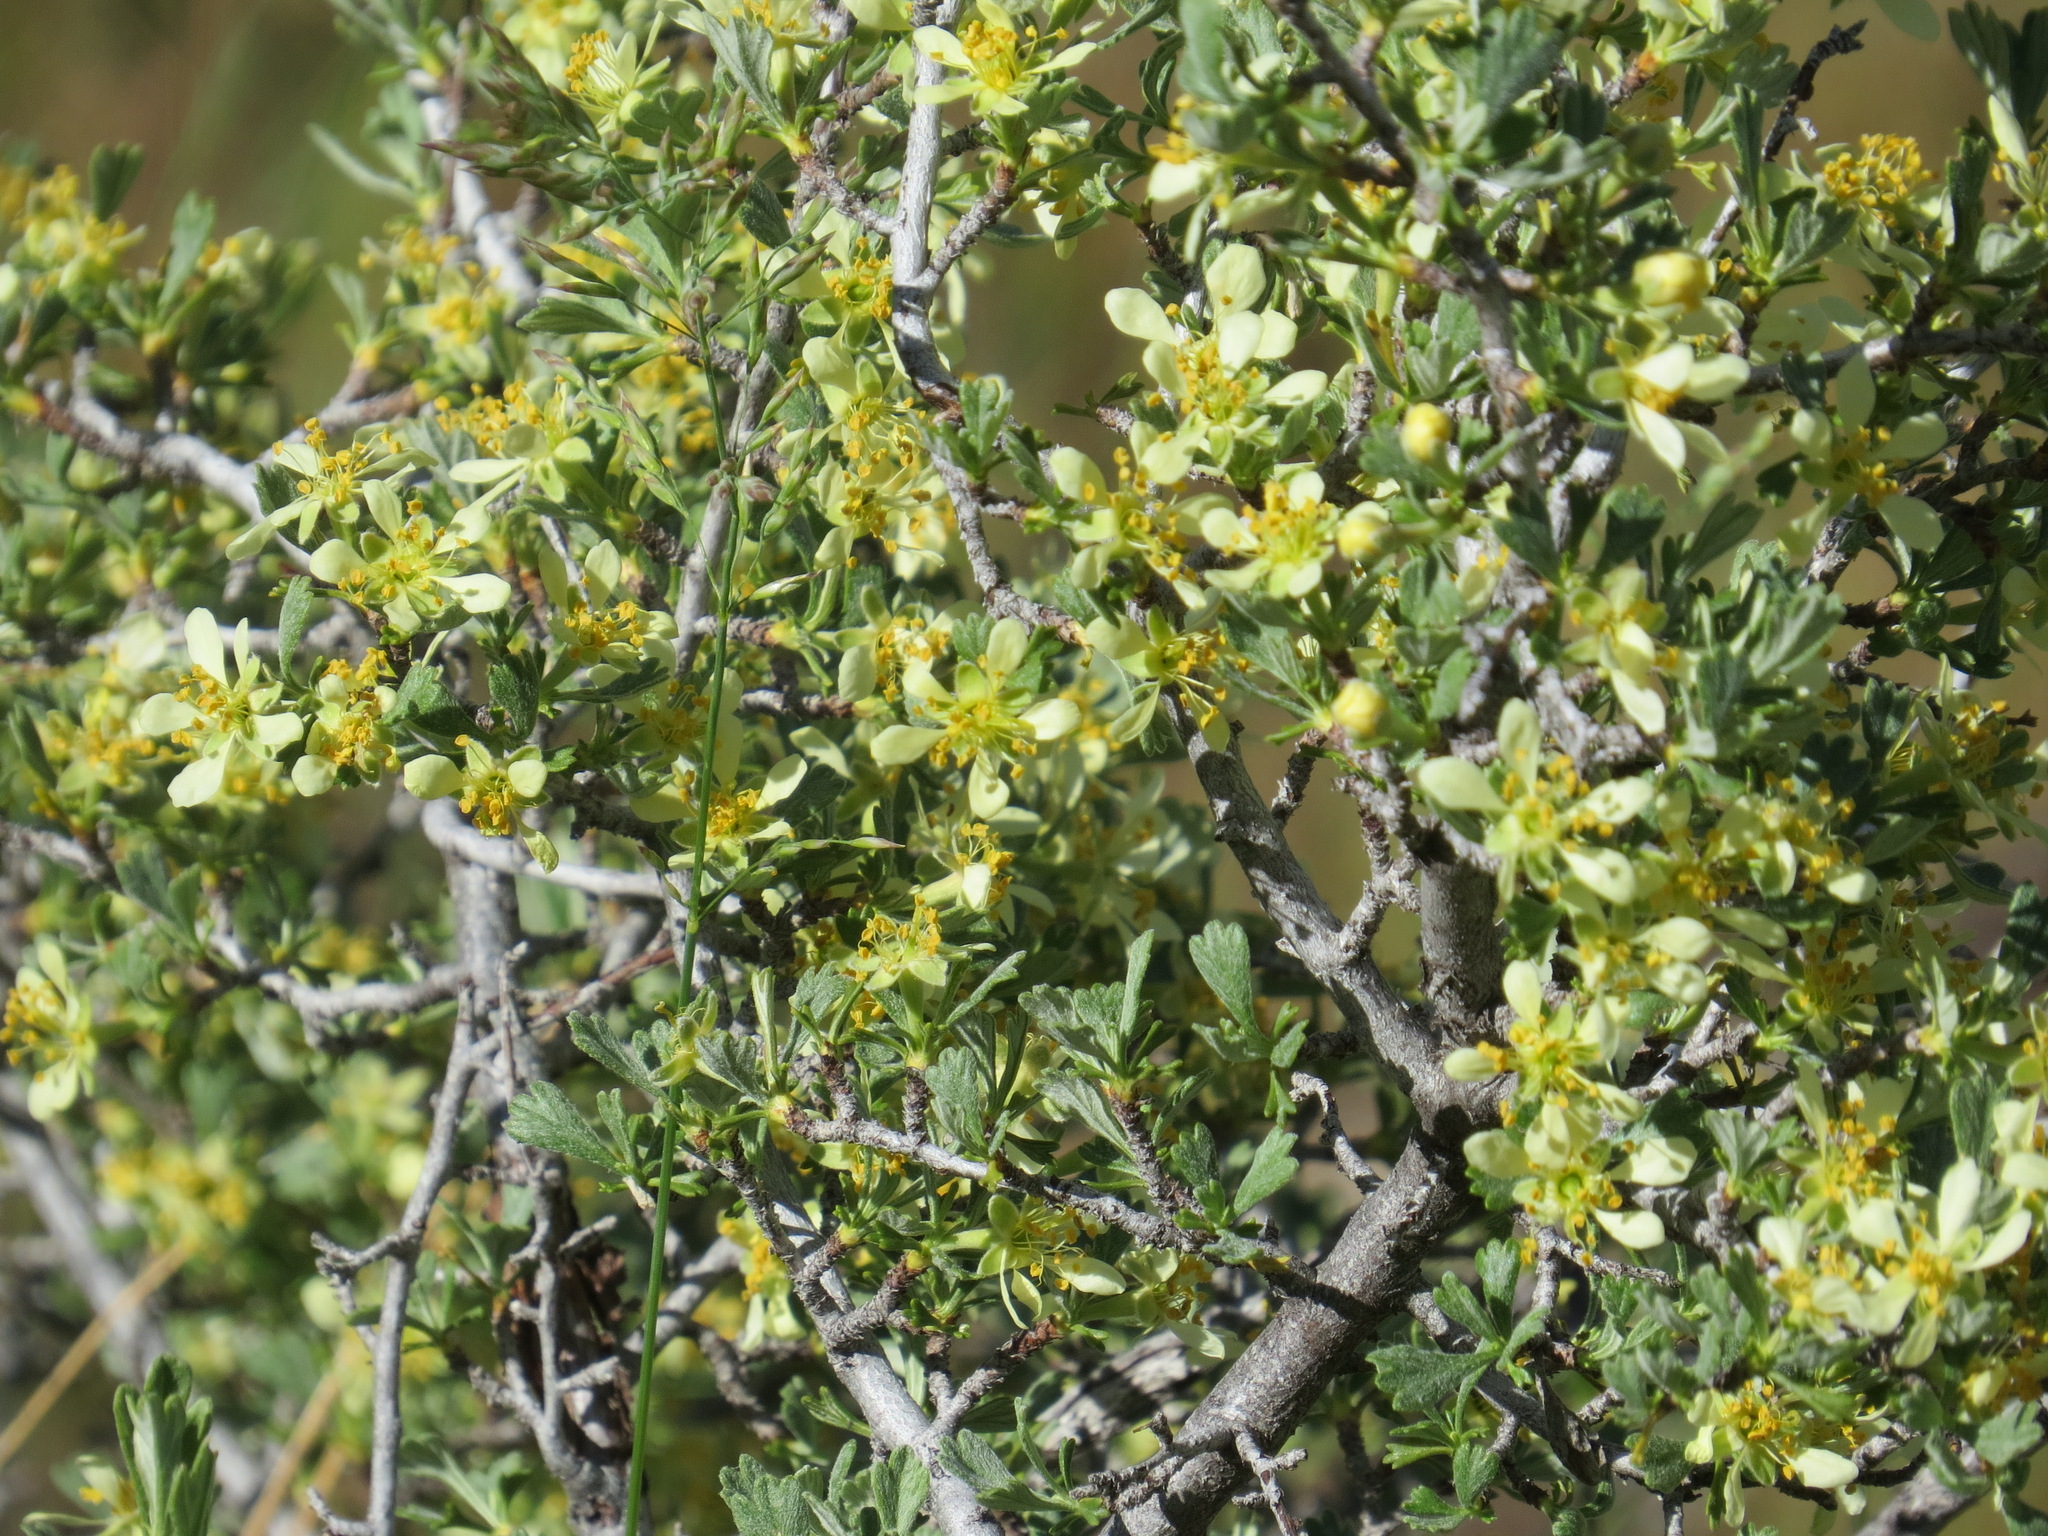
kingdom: Plantae
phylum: Tracheophyta
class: Magnoliopsida
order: Rosales
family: Rosaceae
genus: Purshia
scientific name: Purshia tridentata
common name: Antelope bitterbrush
